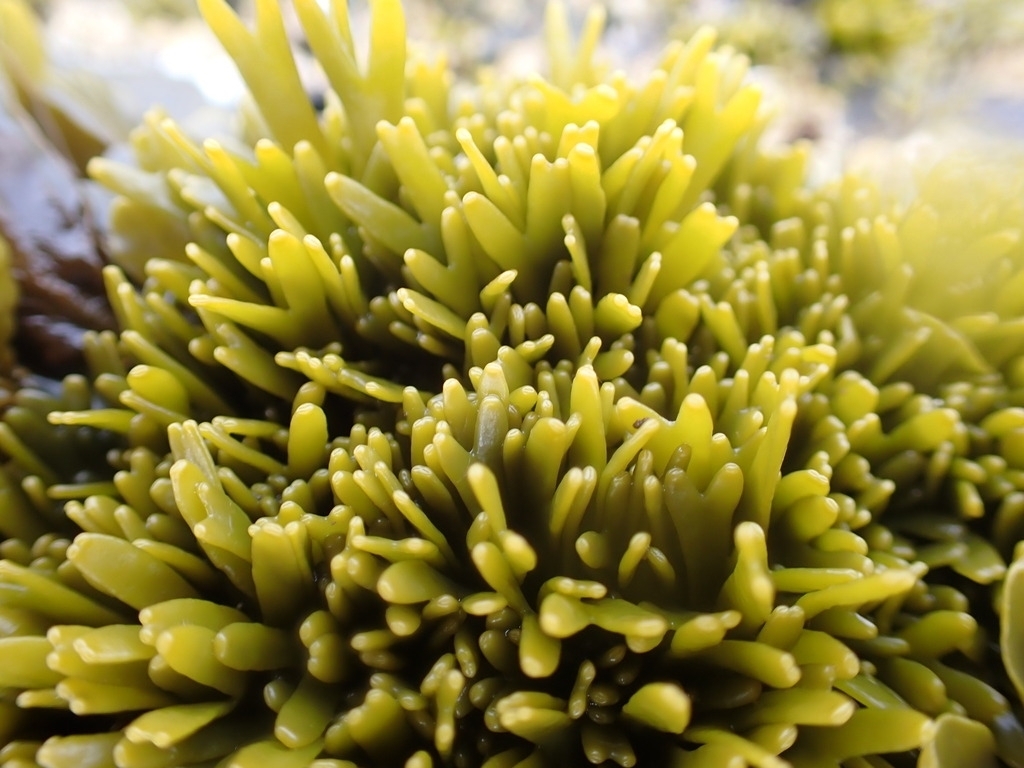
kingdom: Chromista
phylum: Ochrophyta
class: Phaeophyceae
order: Fucales
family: Fucaceae
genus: Pelvetiopsis
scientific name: Pelvetiopsis limitata
